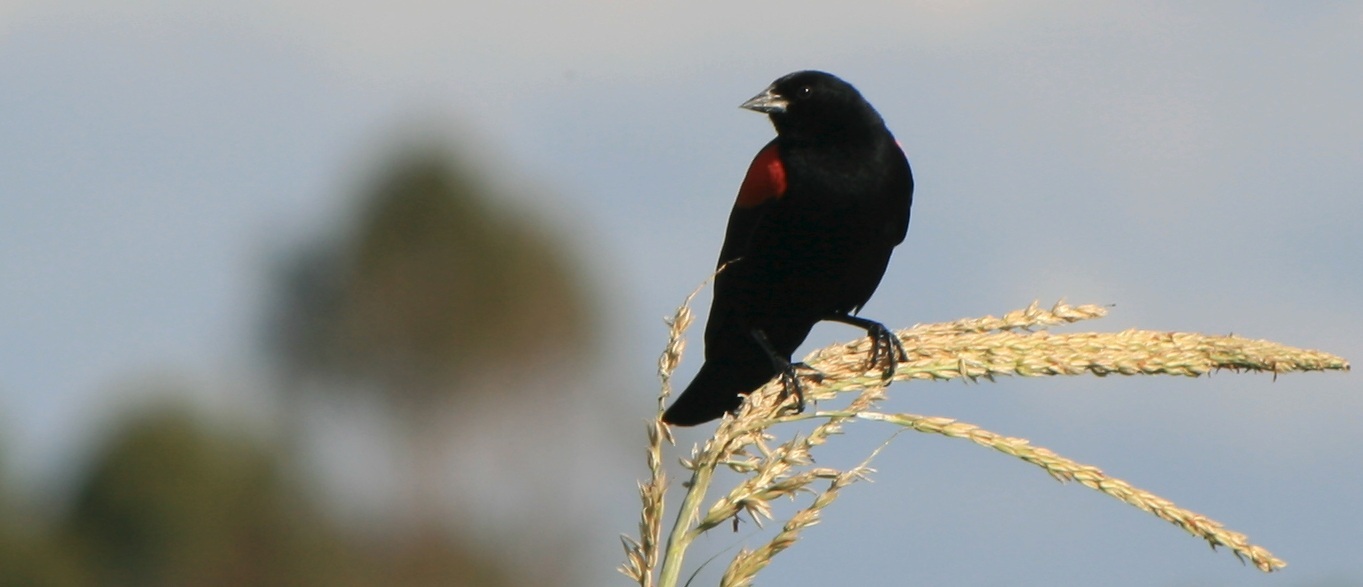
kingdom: Animalia
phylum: Chordata
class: Aves
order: Passeriformes
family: Icteridae
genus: Agelaius
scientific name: Agelaius phoeniceus
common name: Red-winged blackbird
